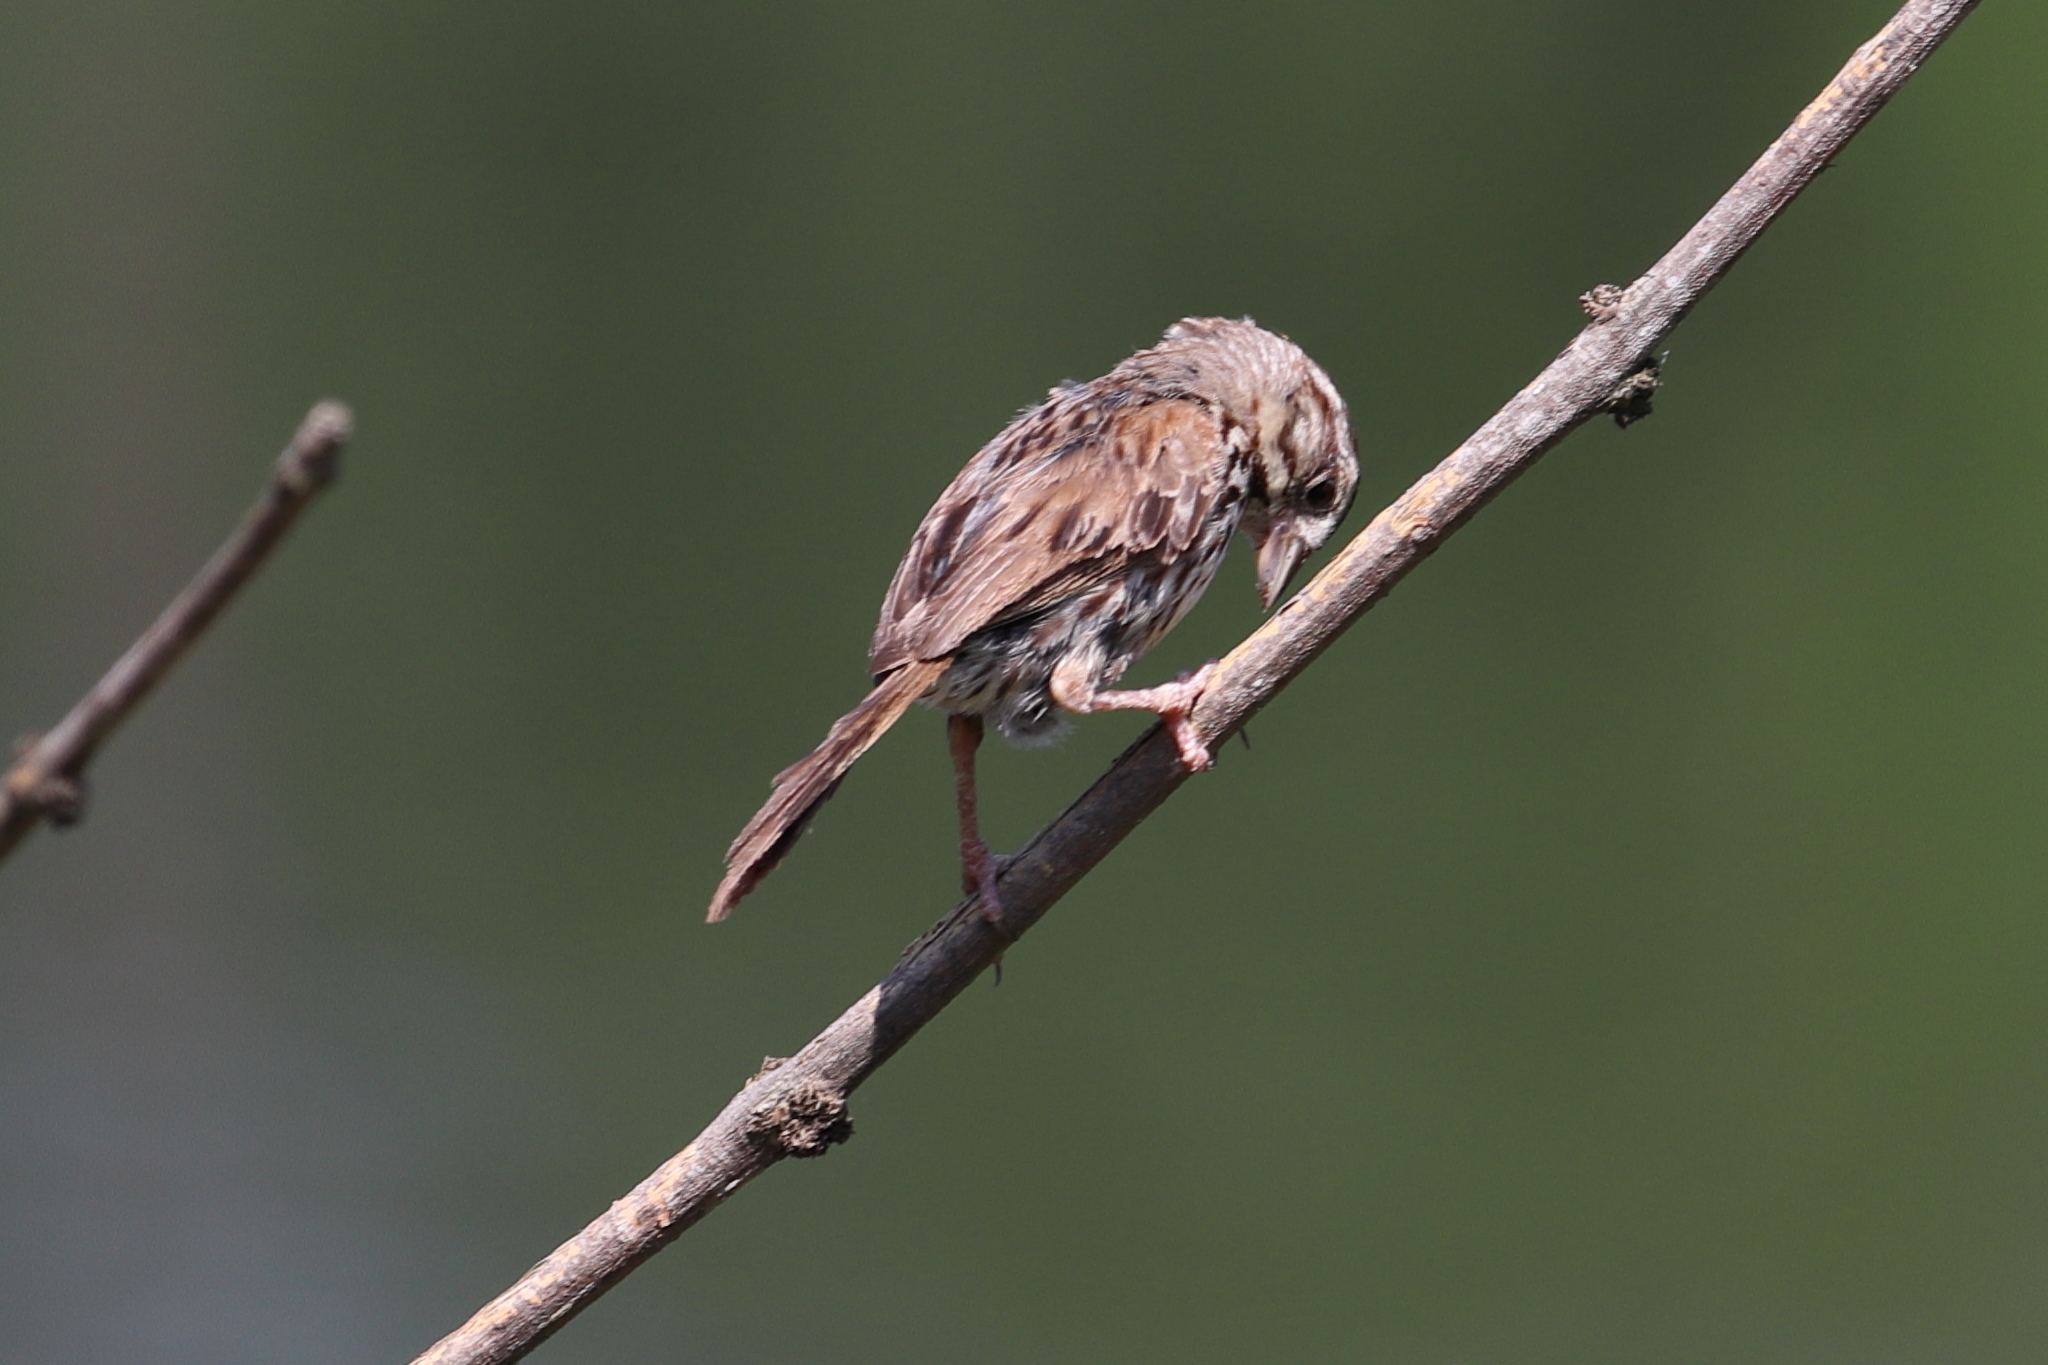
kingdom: Animalia
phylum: Chordata
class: Aves
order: Passeriformes
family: Passerellidae
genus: Melospiza
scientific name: Melospiza melodia
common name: Song sparrow
